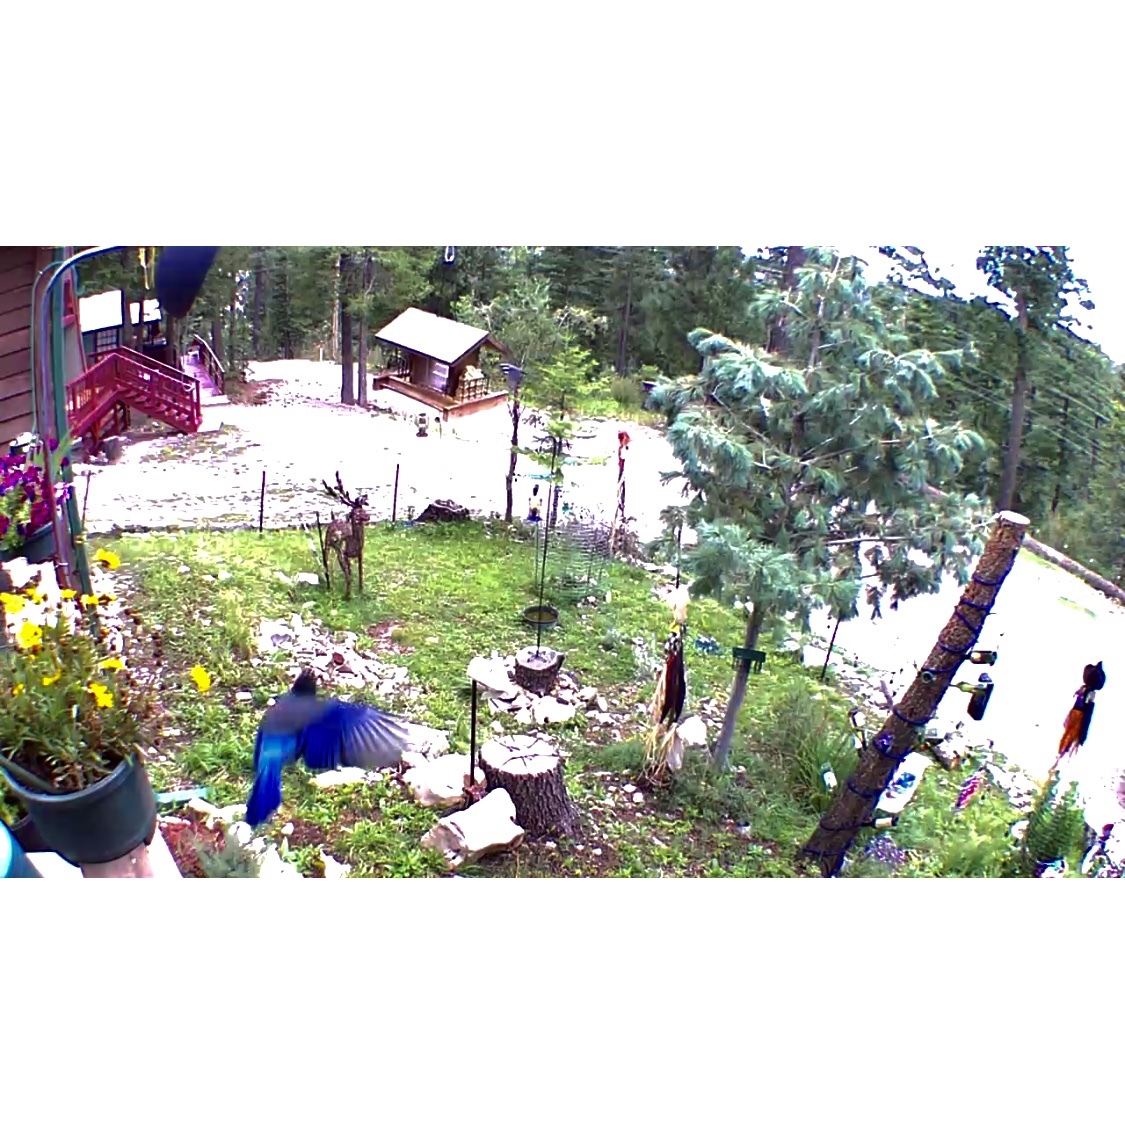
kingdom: Animalia
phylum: Chordata
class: Aves
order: Passeriformes
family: Corvidae
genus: Cyanocitta
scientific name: Cyanocitta stelleri
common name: Steller's jay
